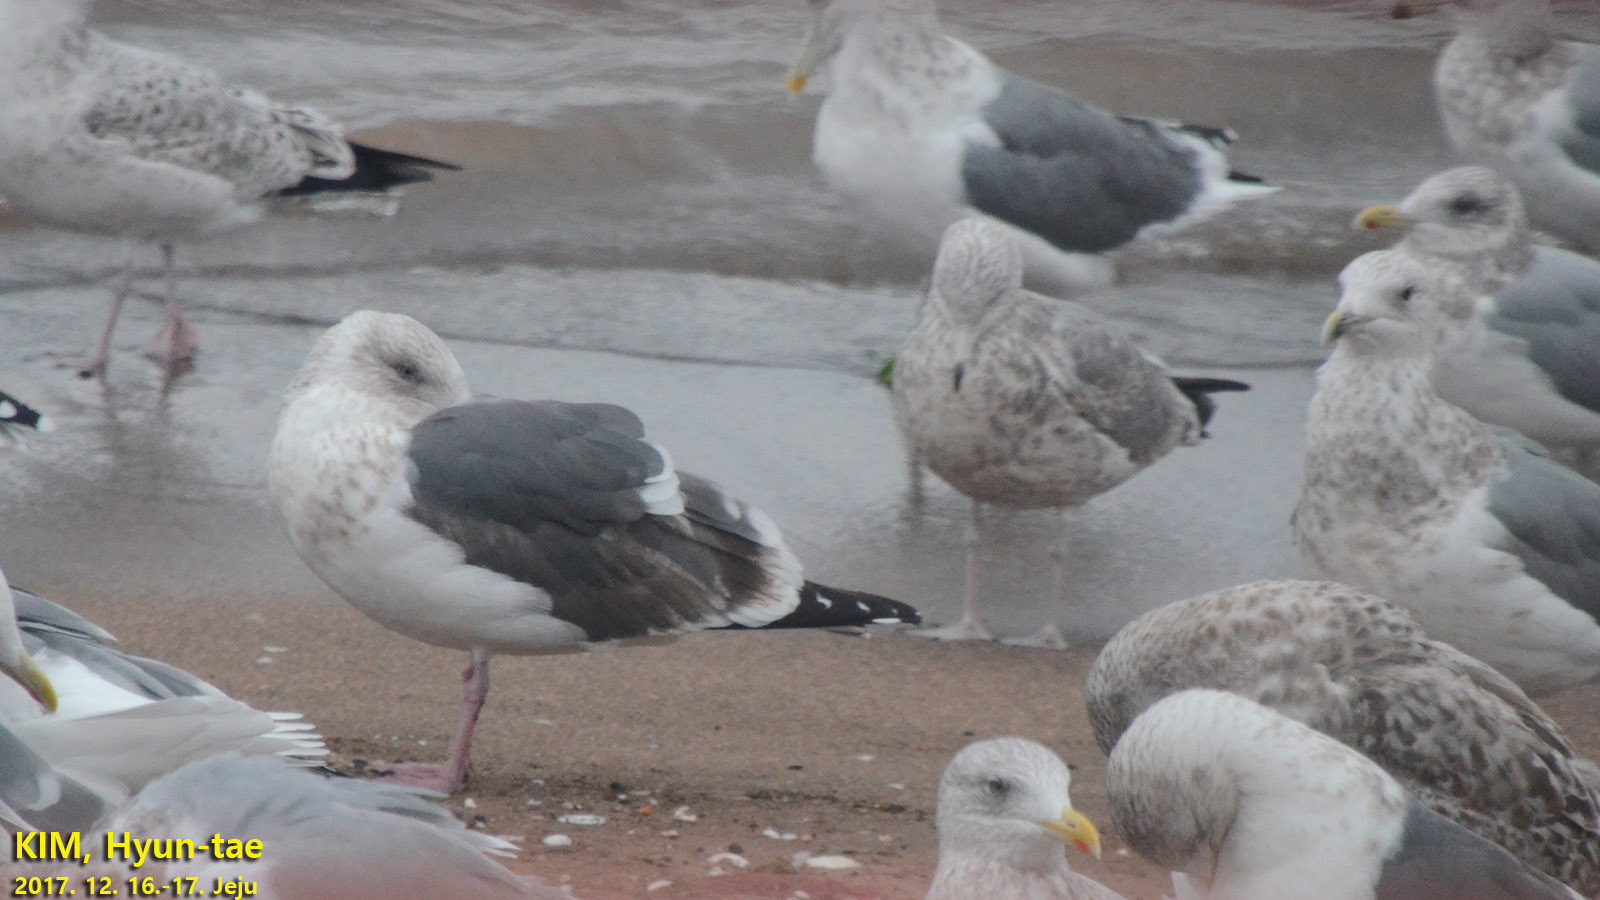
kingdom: Animalia
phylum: Chordata
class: Aves
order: Charadriiformes
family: Laridae
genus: Larus
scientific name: Larus schistisagus
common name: Slaty-backed gull
